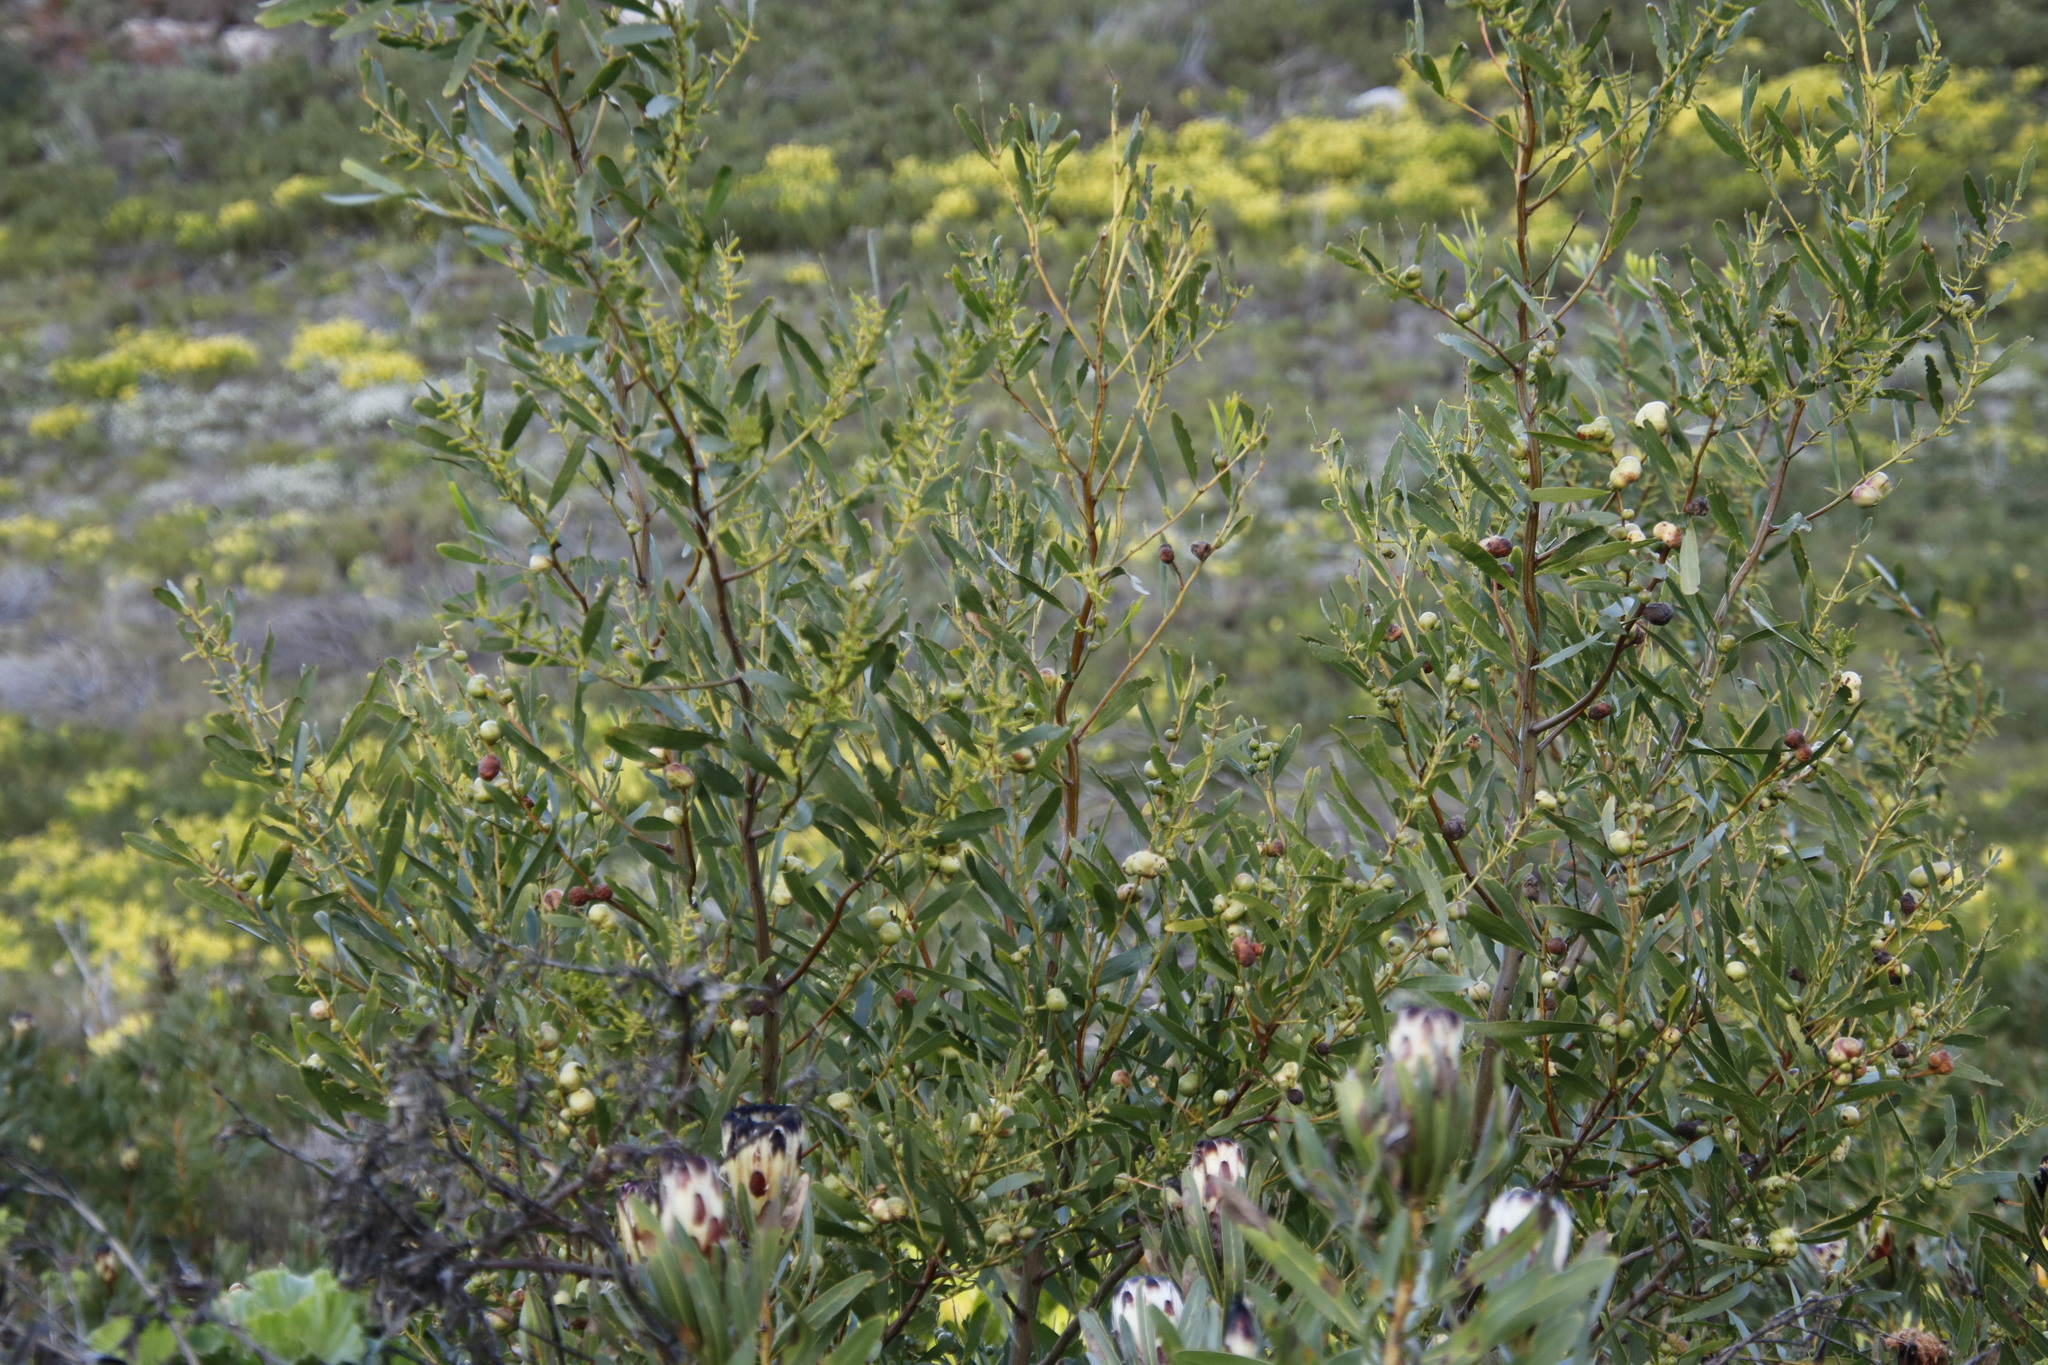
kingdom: Animalia
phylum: Arthropoda
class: Insecta
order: Hymenoptera
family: Pteromalidae
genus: Trichilogaster
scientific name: Trichilogaster acaciaelongifoliae
